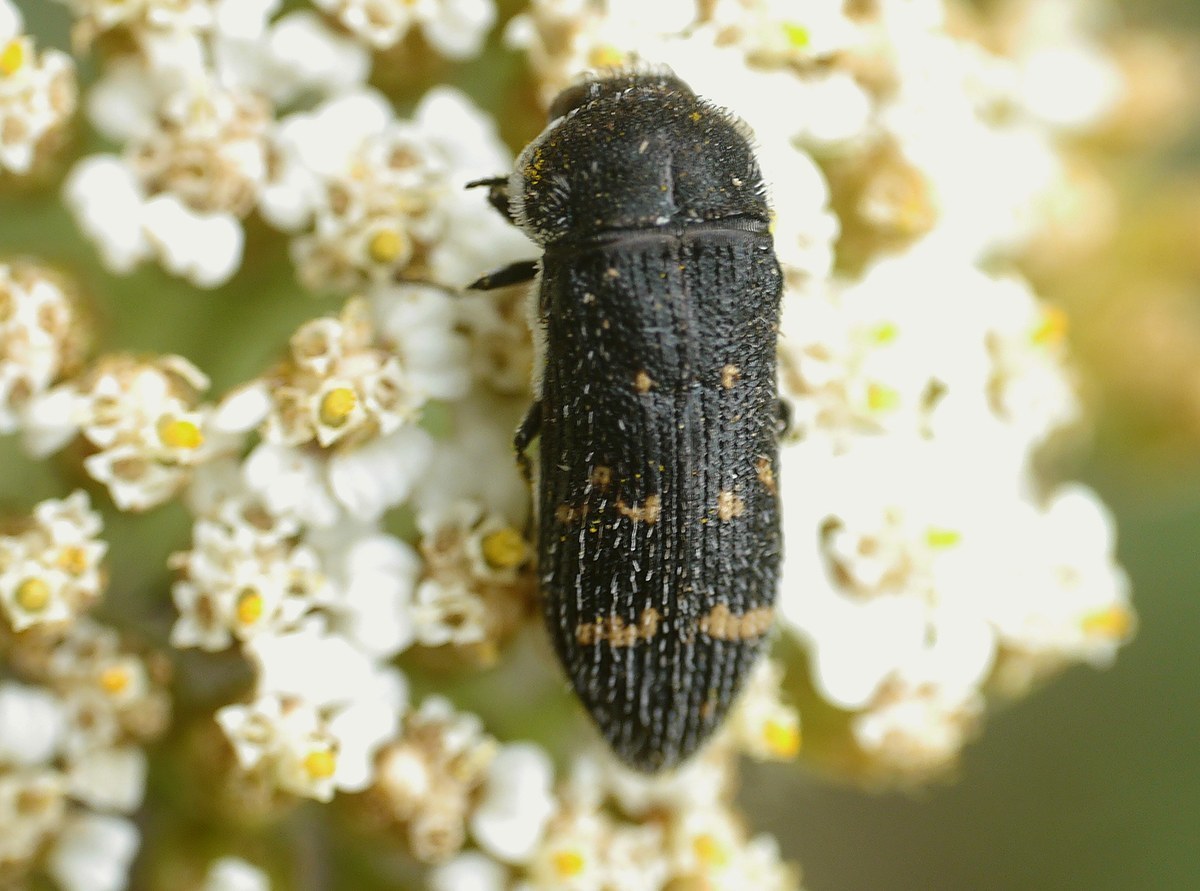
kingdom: Animalia
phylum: Arthropoda
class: Insecta
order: Coleoptera
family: Buprestidae
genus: Acmaeoderella
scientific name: Acmaeoderella flavofasciata
